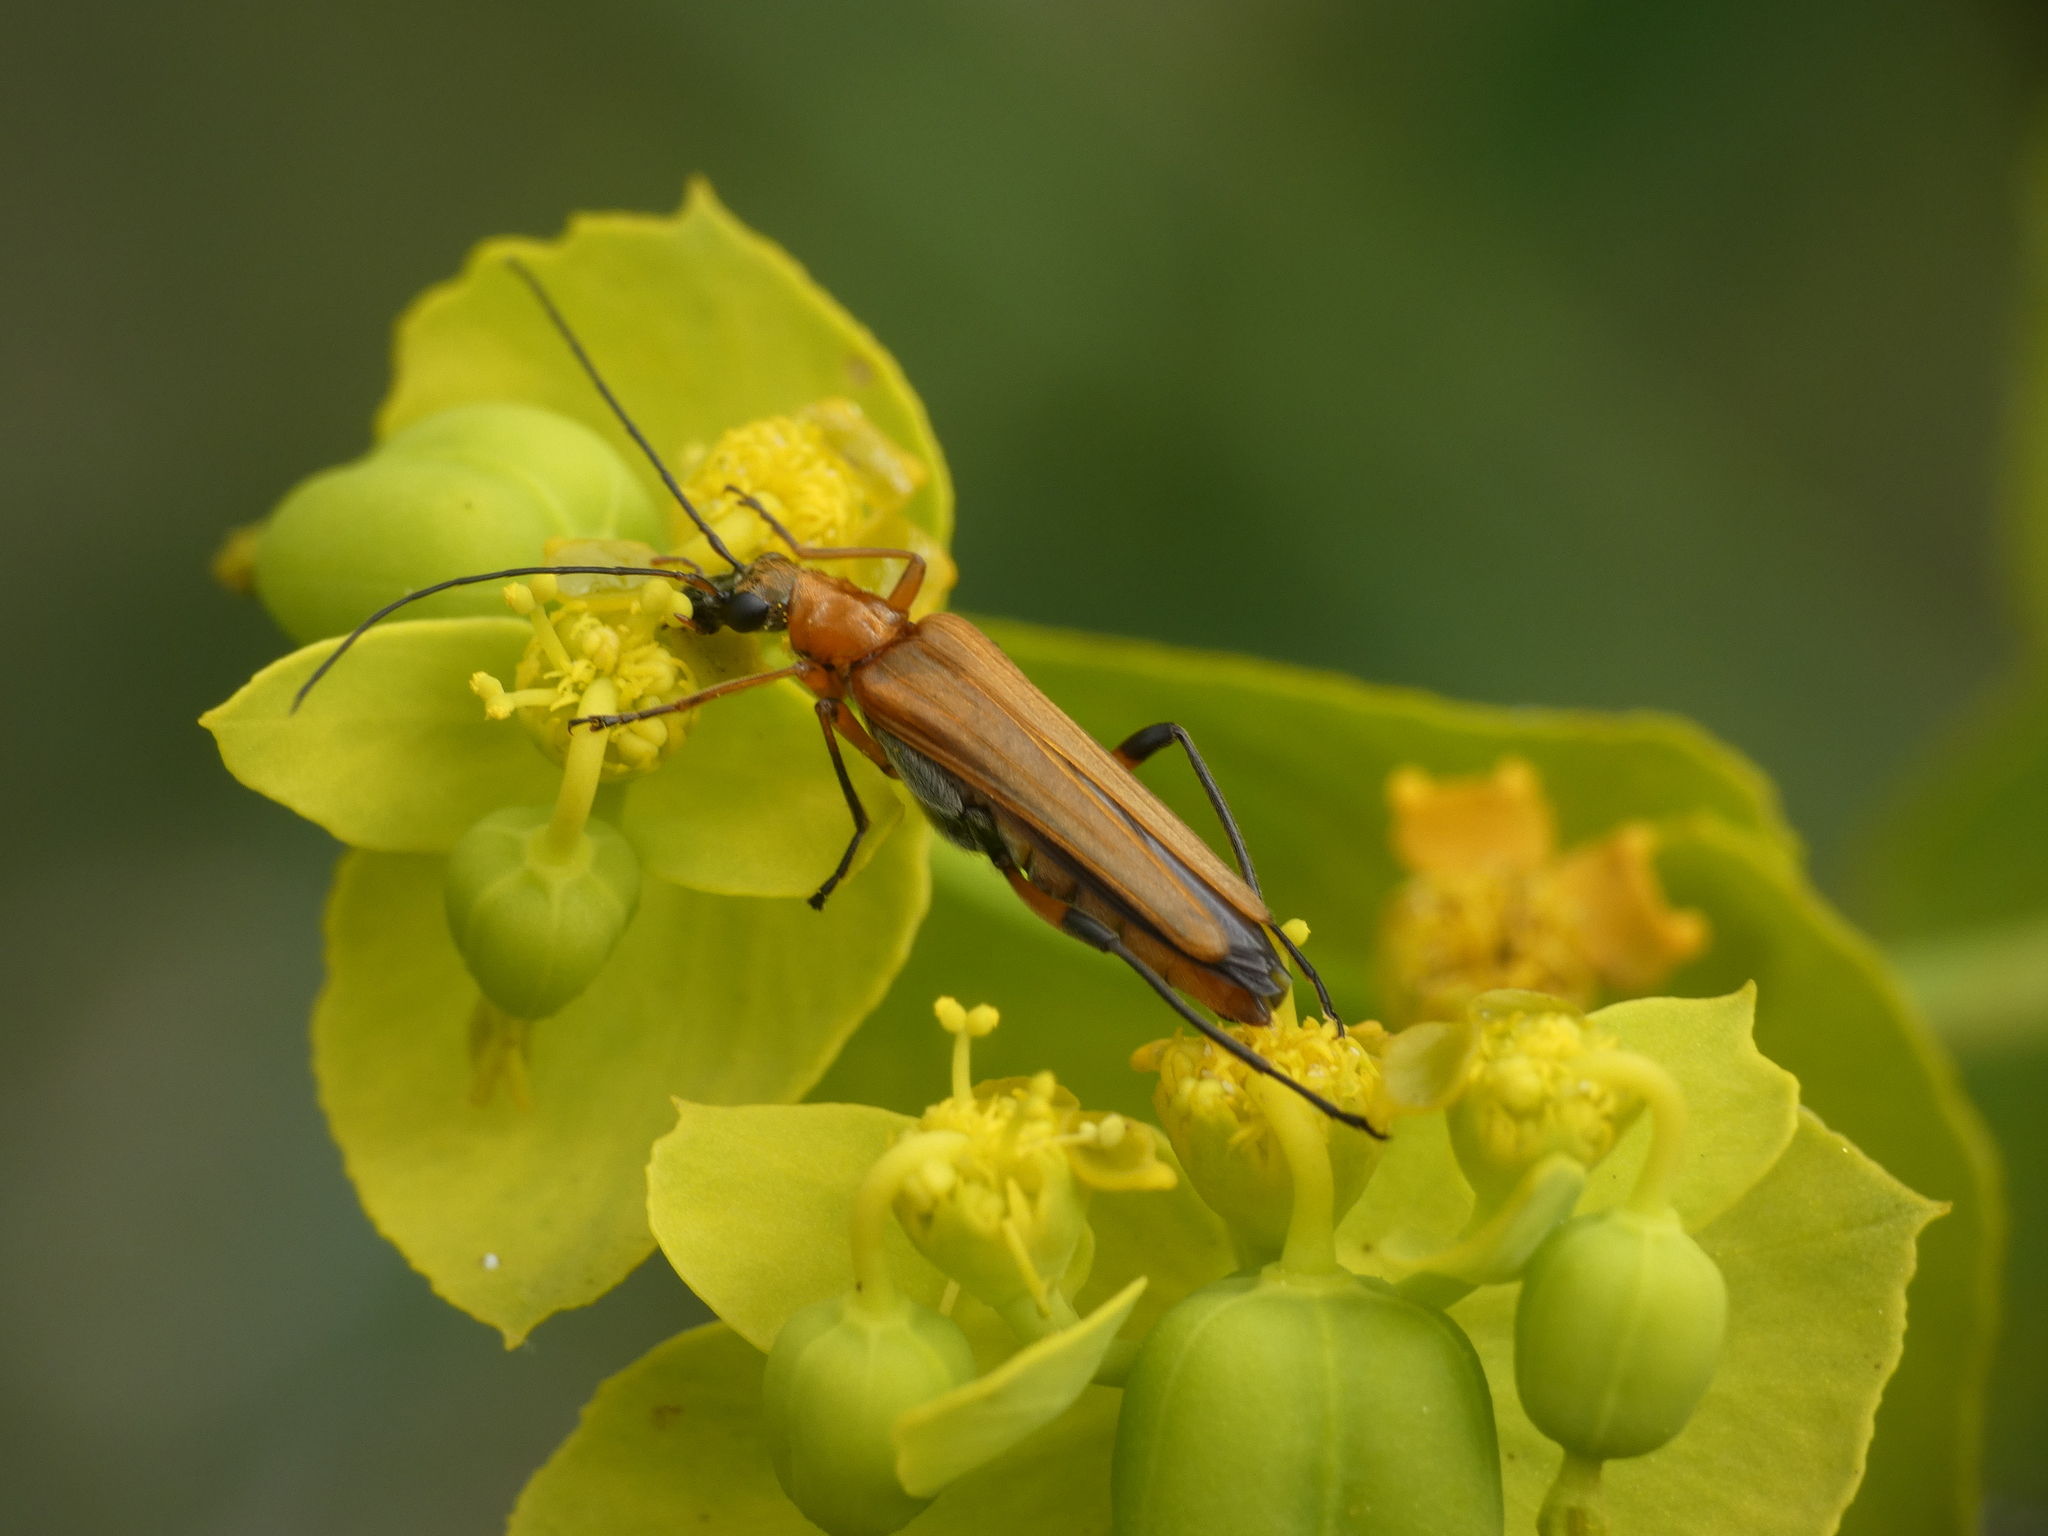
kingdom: Animalia
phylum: Arthropoda
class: Insecta
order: Coleoptera
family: Oedemeridae
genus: Oedemera
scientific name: Oedemera podagrariae
